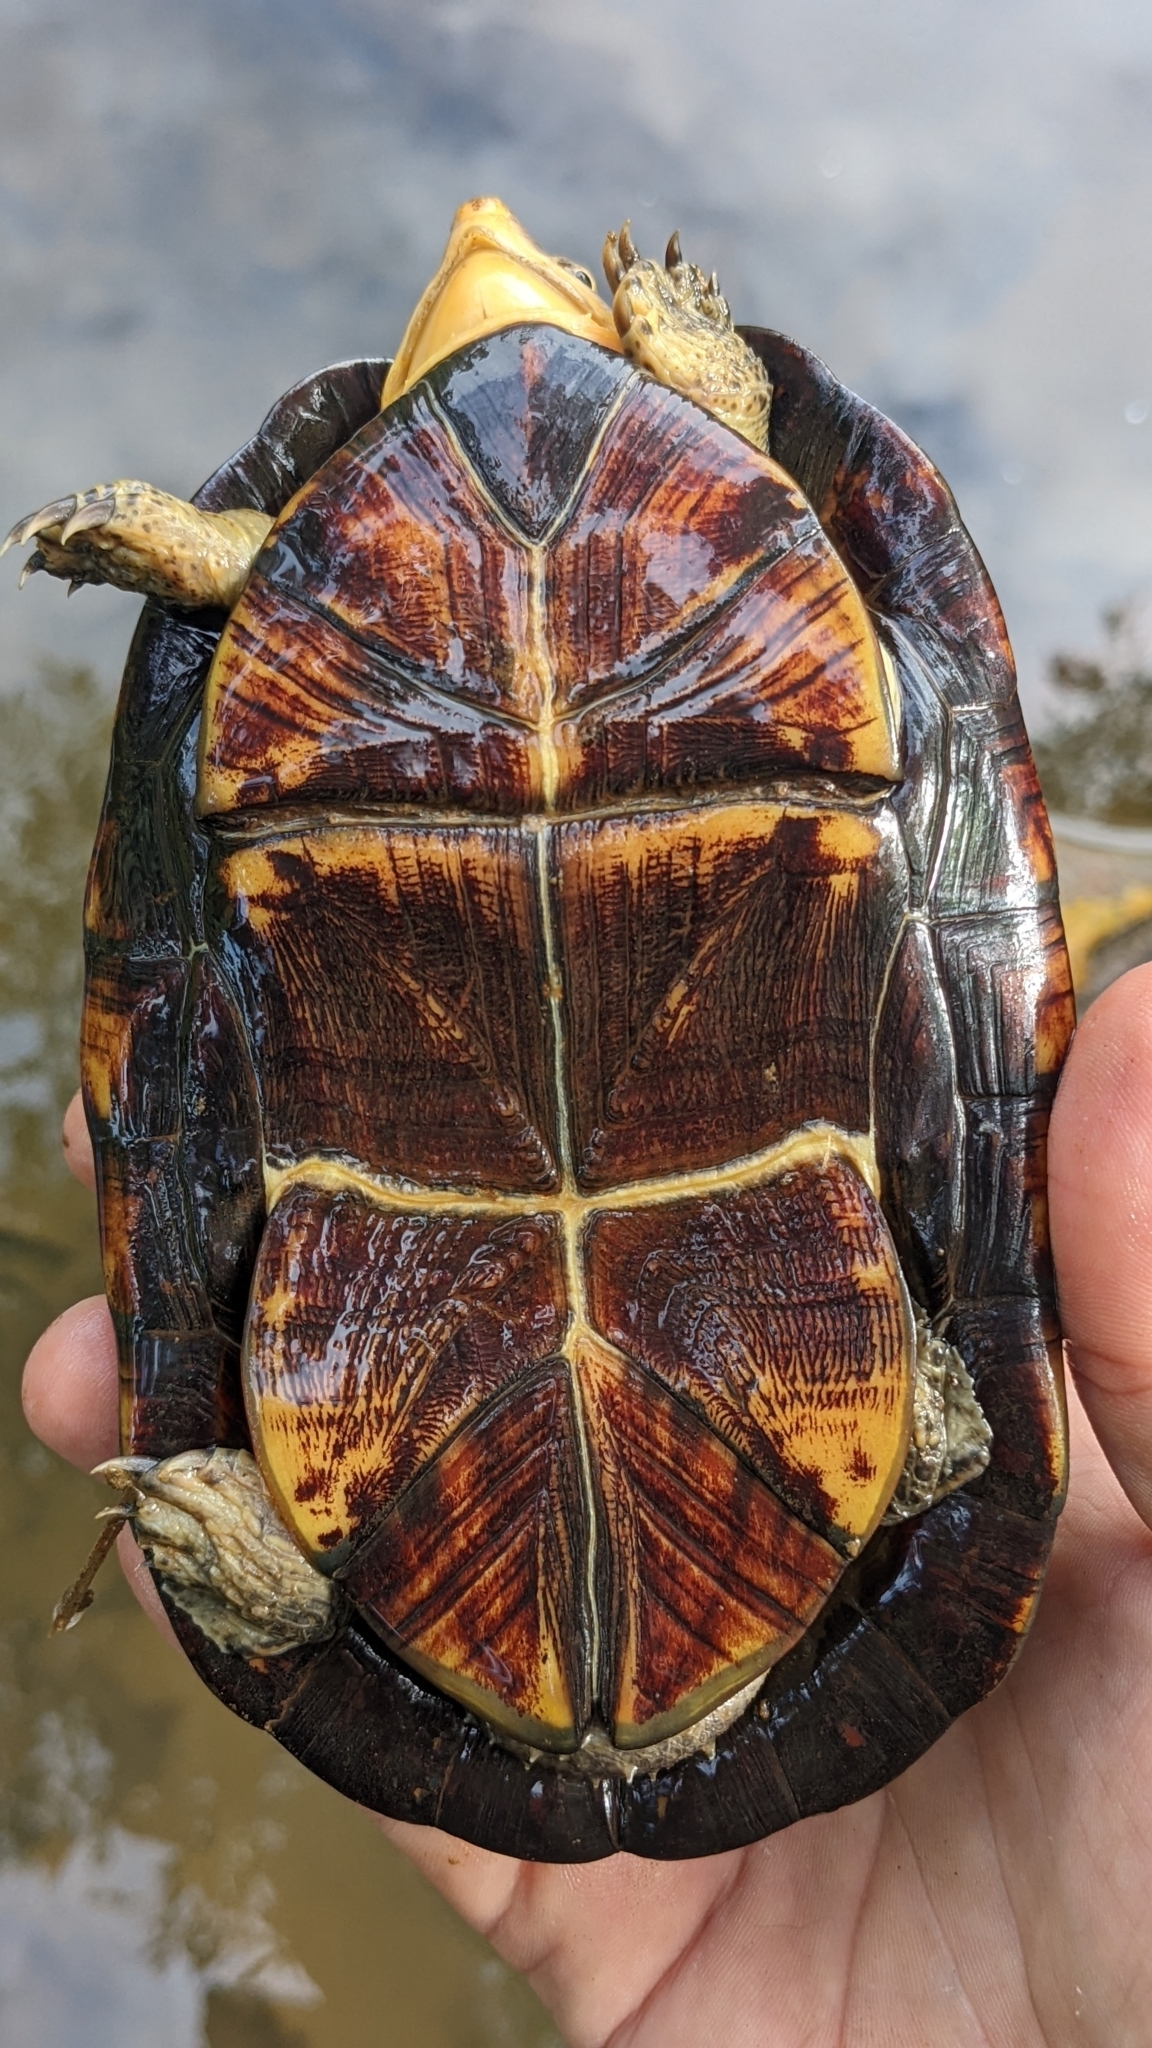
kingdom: Animalia
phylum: Chordata
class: Testudines
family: Kinosternidae
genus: Kinosternon
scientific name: Kinosternon leucostomum
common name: White-lipped mud turtle
